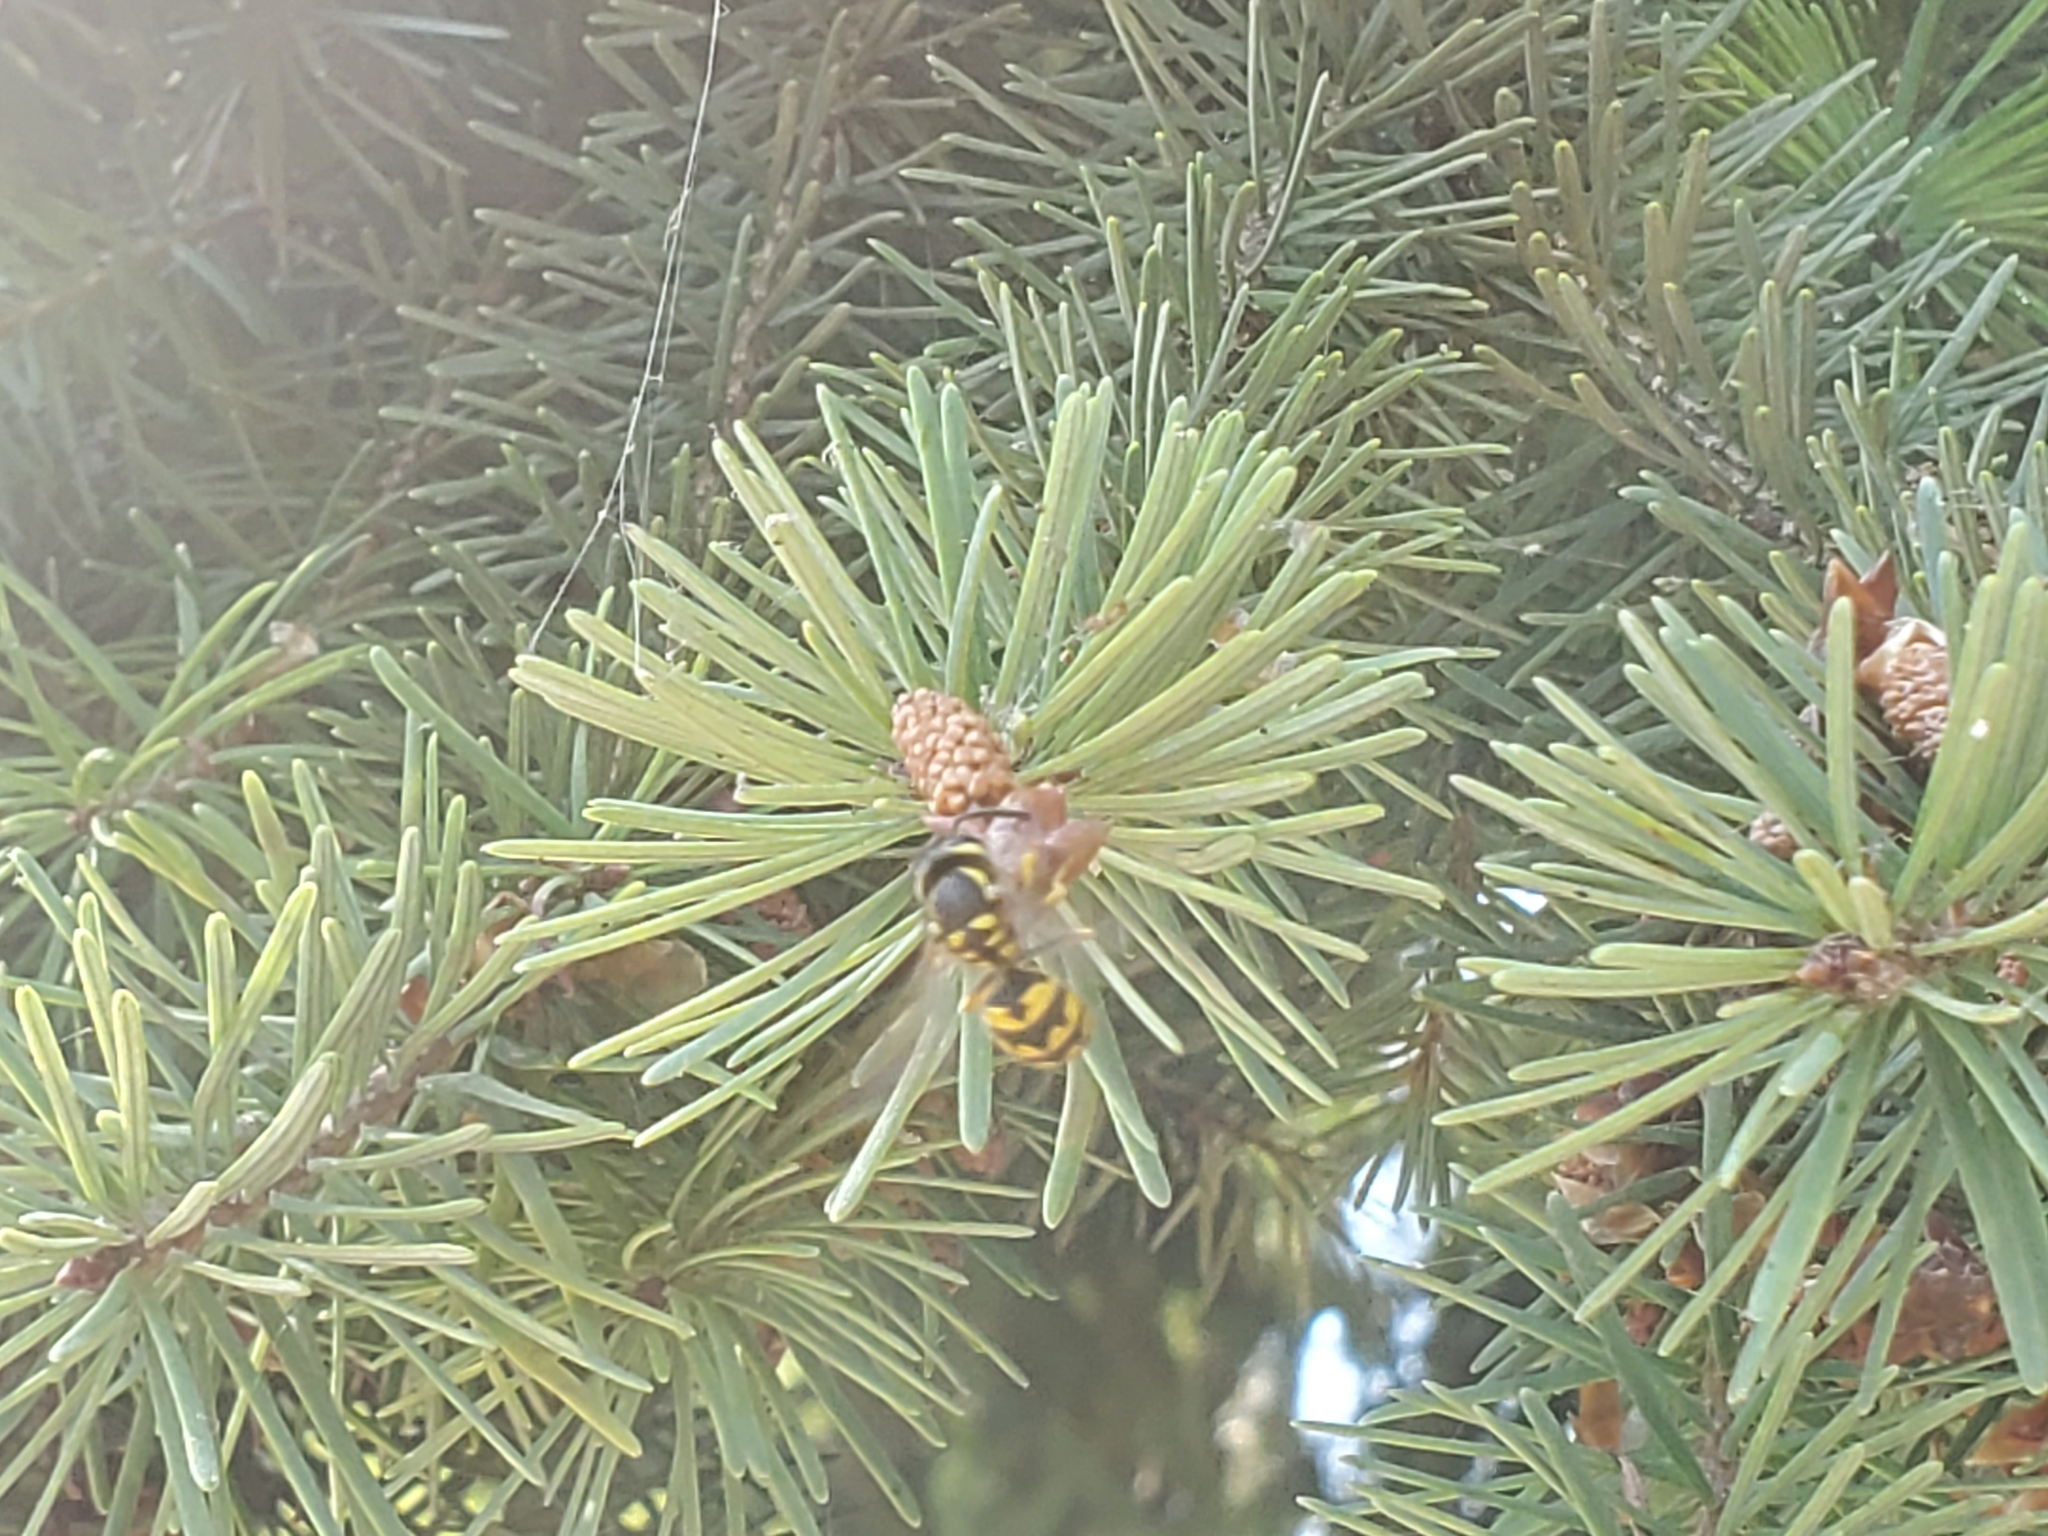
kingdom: Animalia
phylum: Arthropoda
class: Insecta
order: Hymenoptera
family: Vespidae
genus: Vespula
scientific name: Vespula pensylvanica
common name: Western yellowjacket
